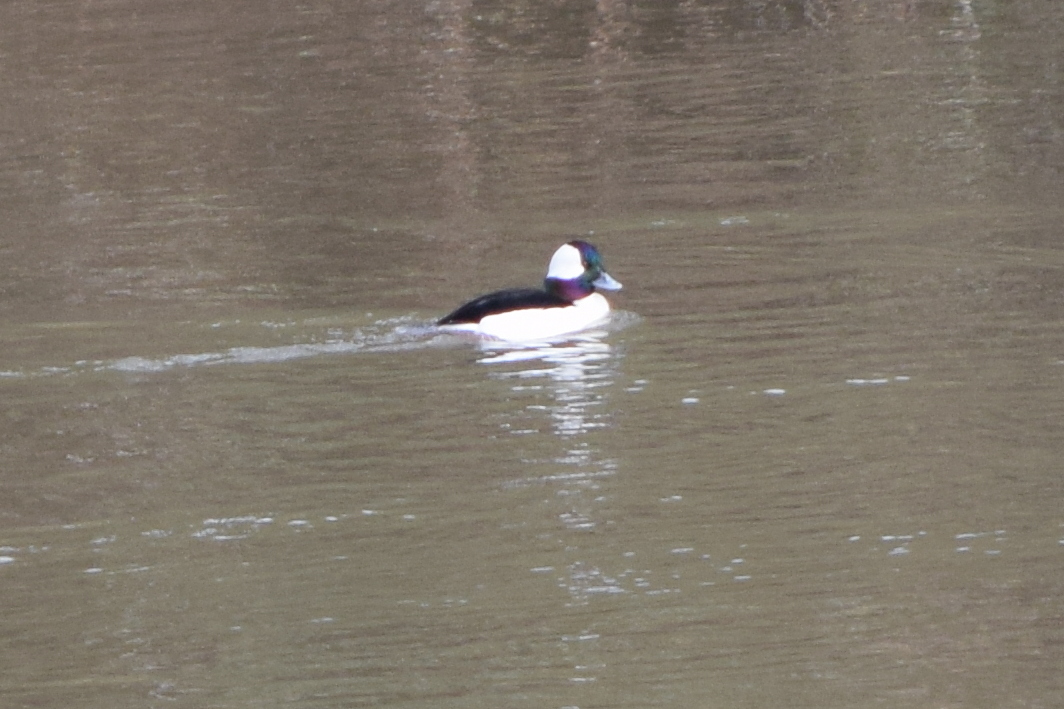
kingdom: Animalia
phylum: Chordata
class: Aves
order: Anseriformes
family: Anatidae
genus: Bucephala
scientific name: Bucephala albeola
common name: Bufflehead
